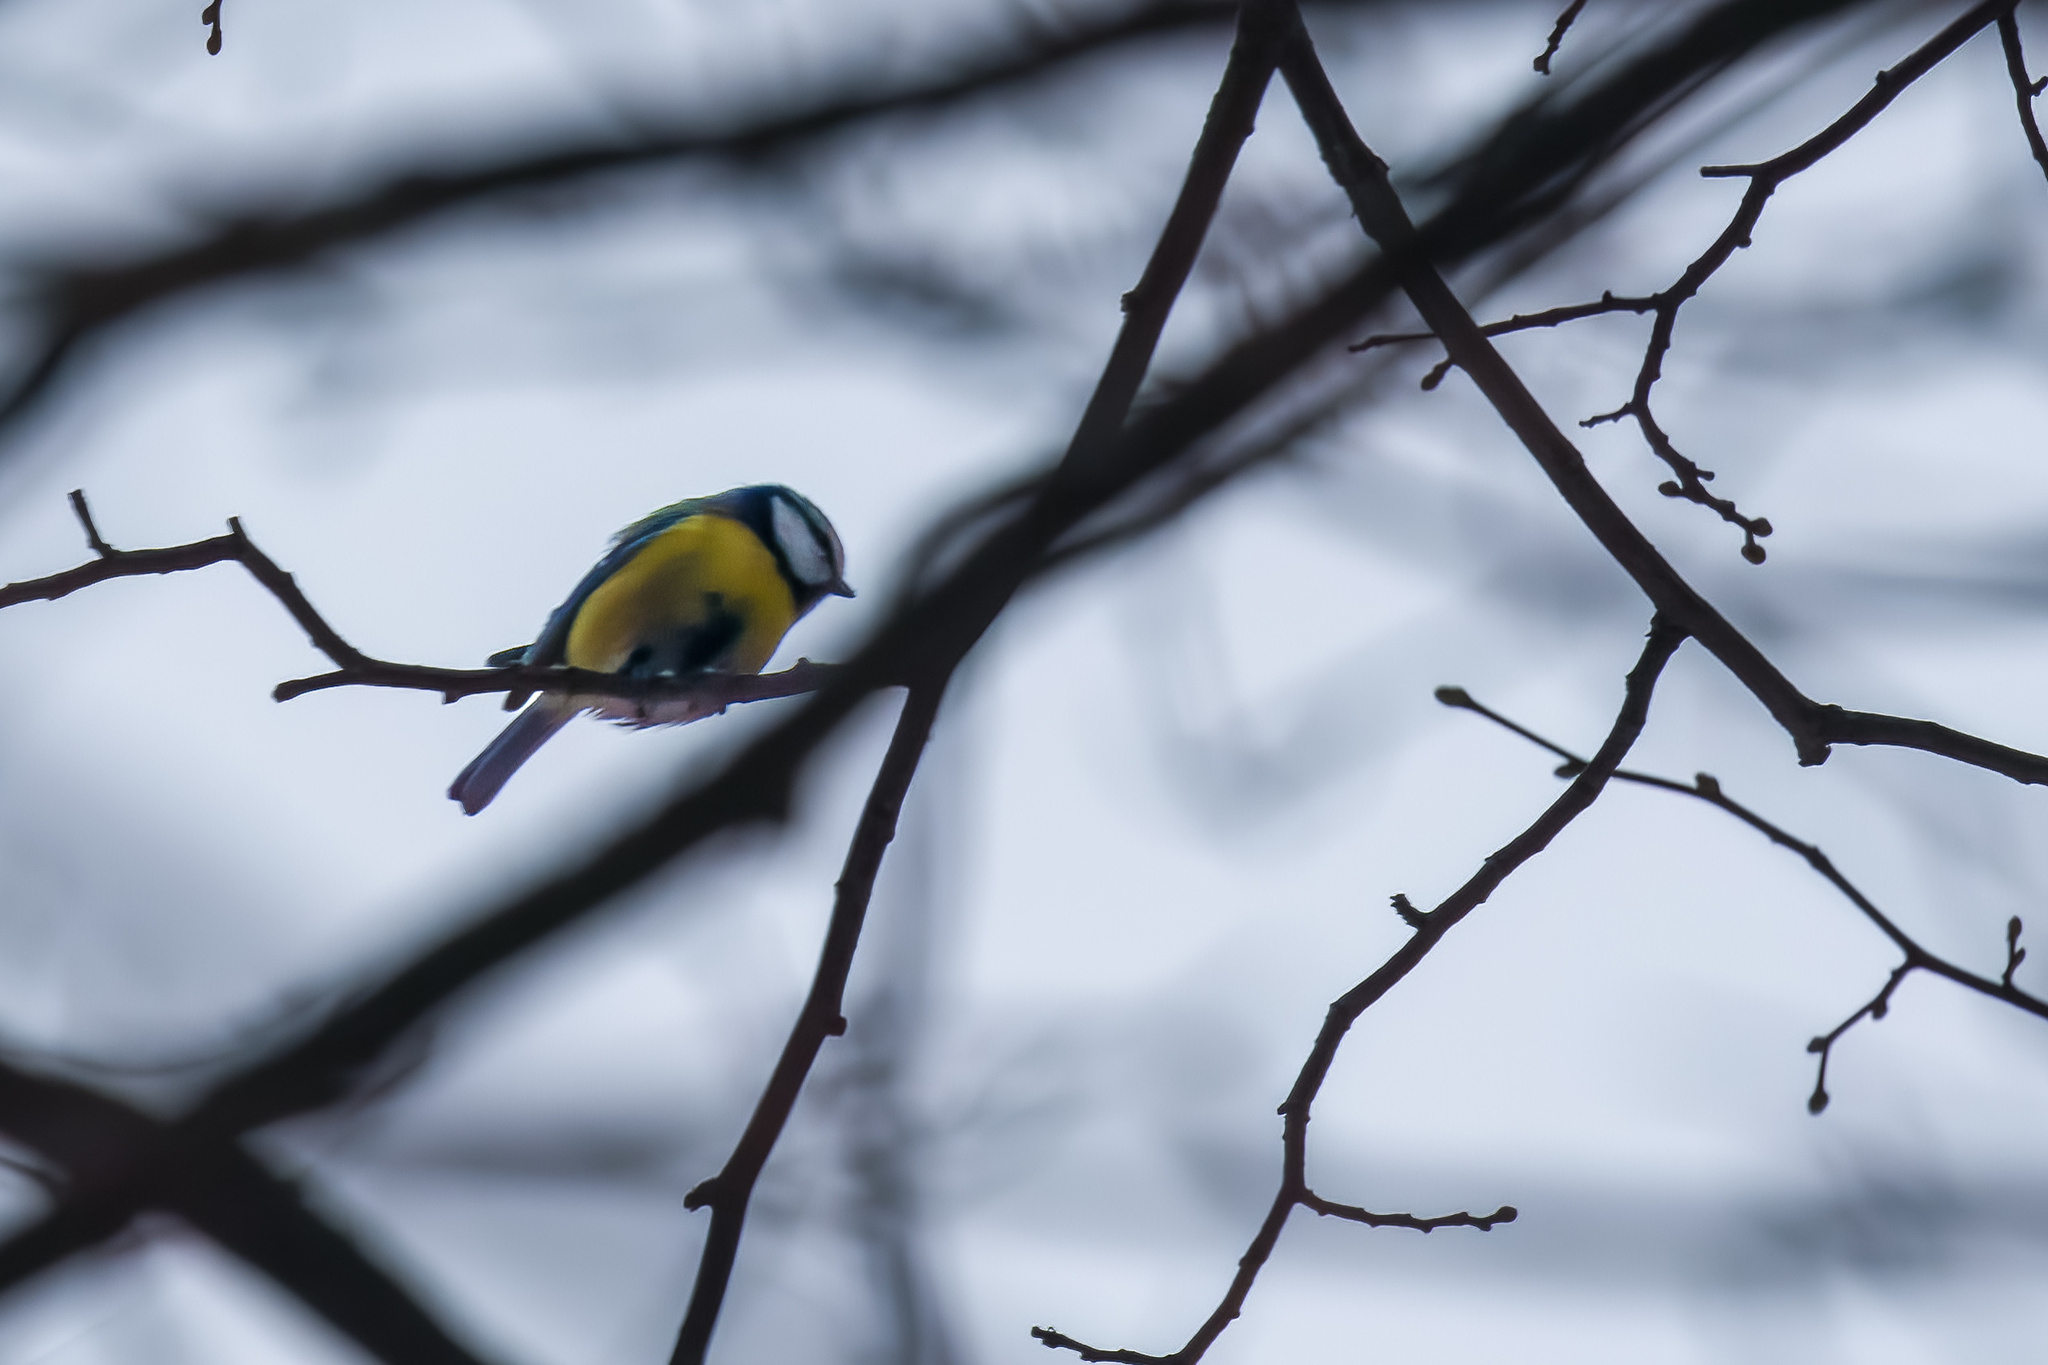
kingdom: Animalia
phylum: Chordata
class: Aves
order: Passeriformes
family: Paridae
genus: Cyanistes
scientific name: Cyanistes caeruleus
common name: Eurasian blue tit
